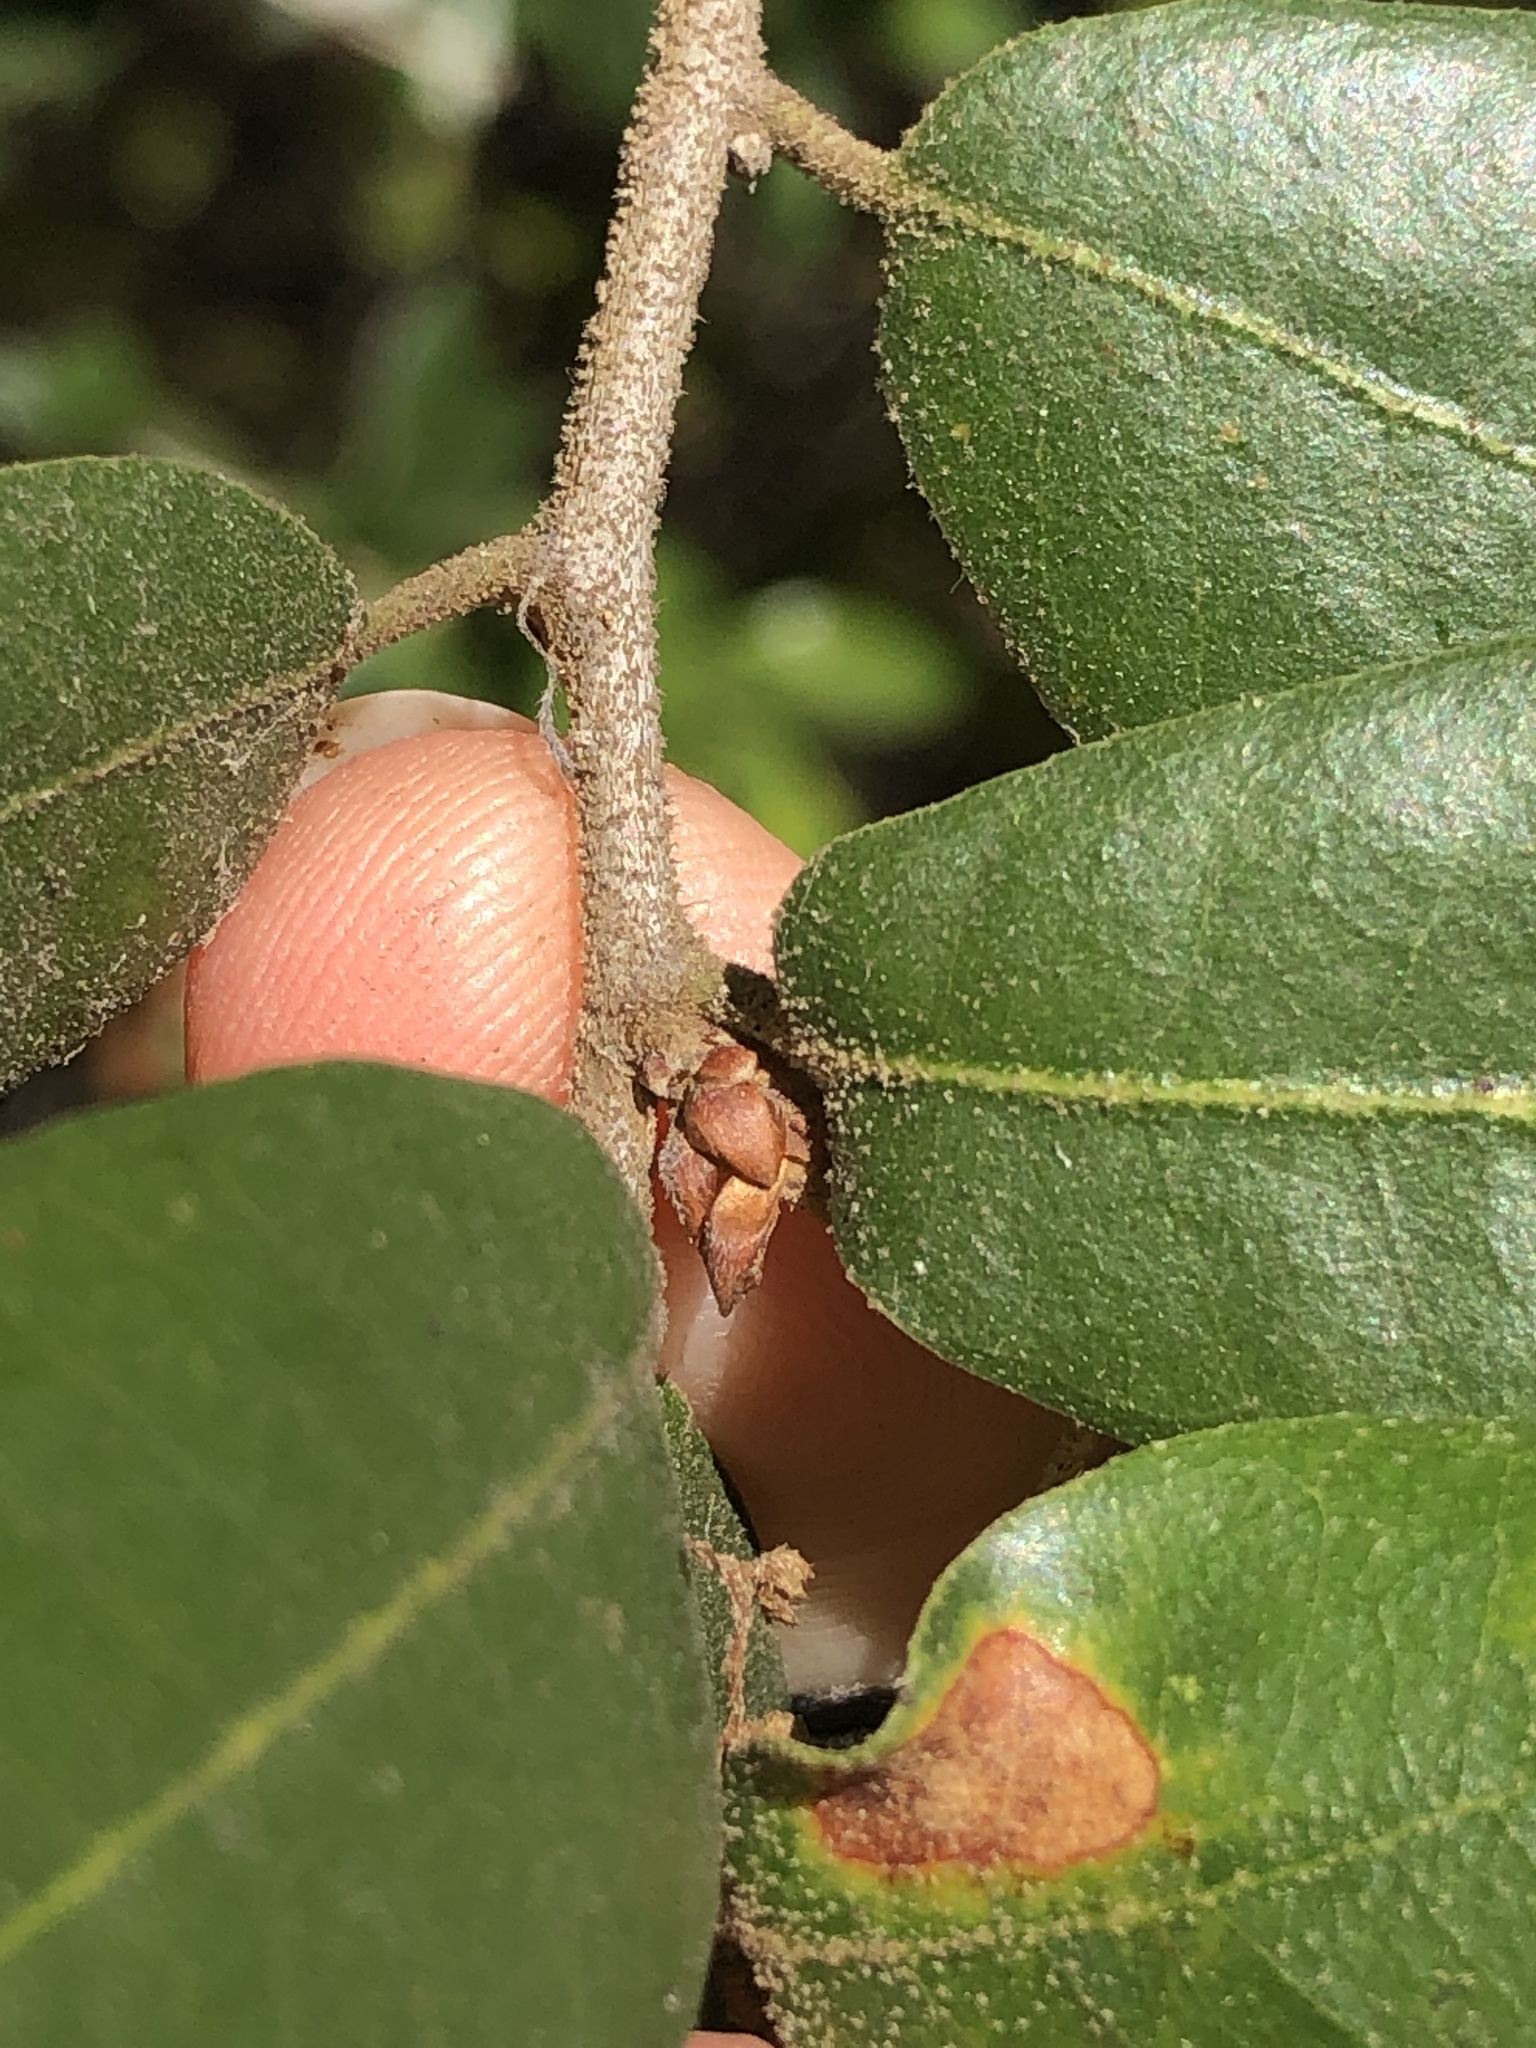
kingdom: Plantae
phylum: Tracheophyta
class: Magnoliopsida
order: Fagales
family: Fagaceae
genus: Quercus
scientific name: Quercus chrysolepis
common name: Canyon live oak
